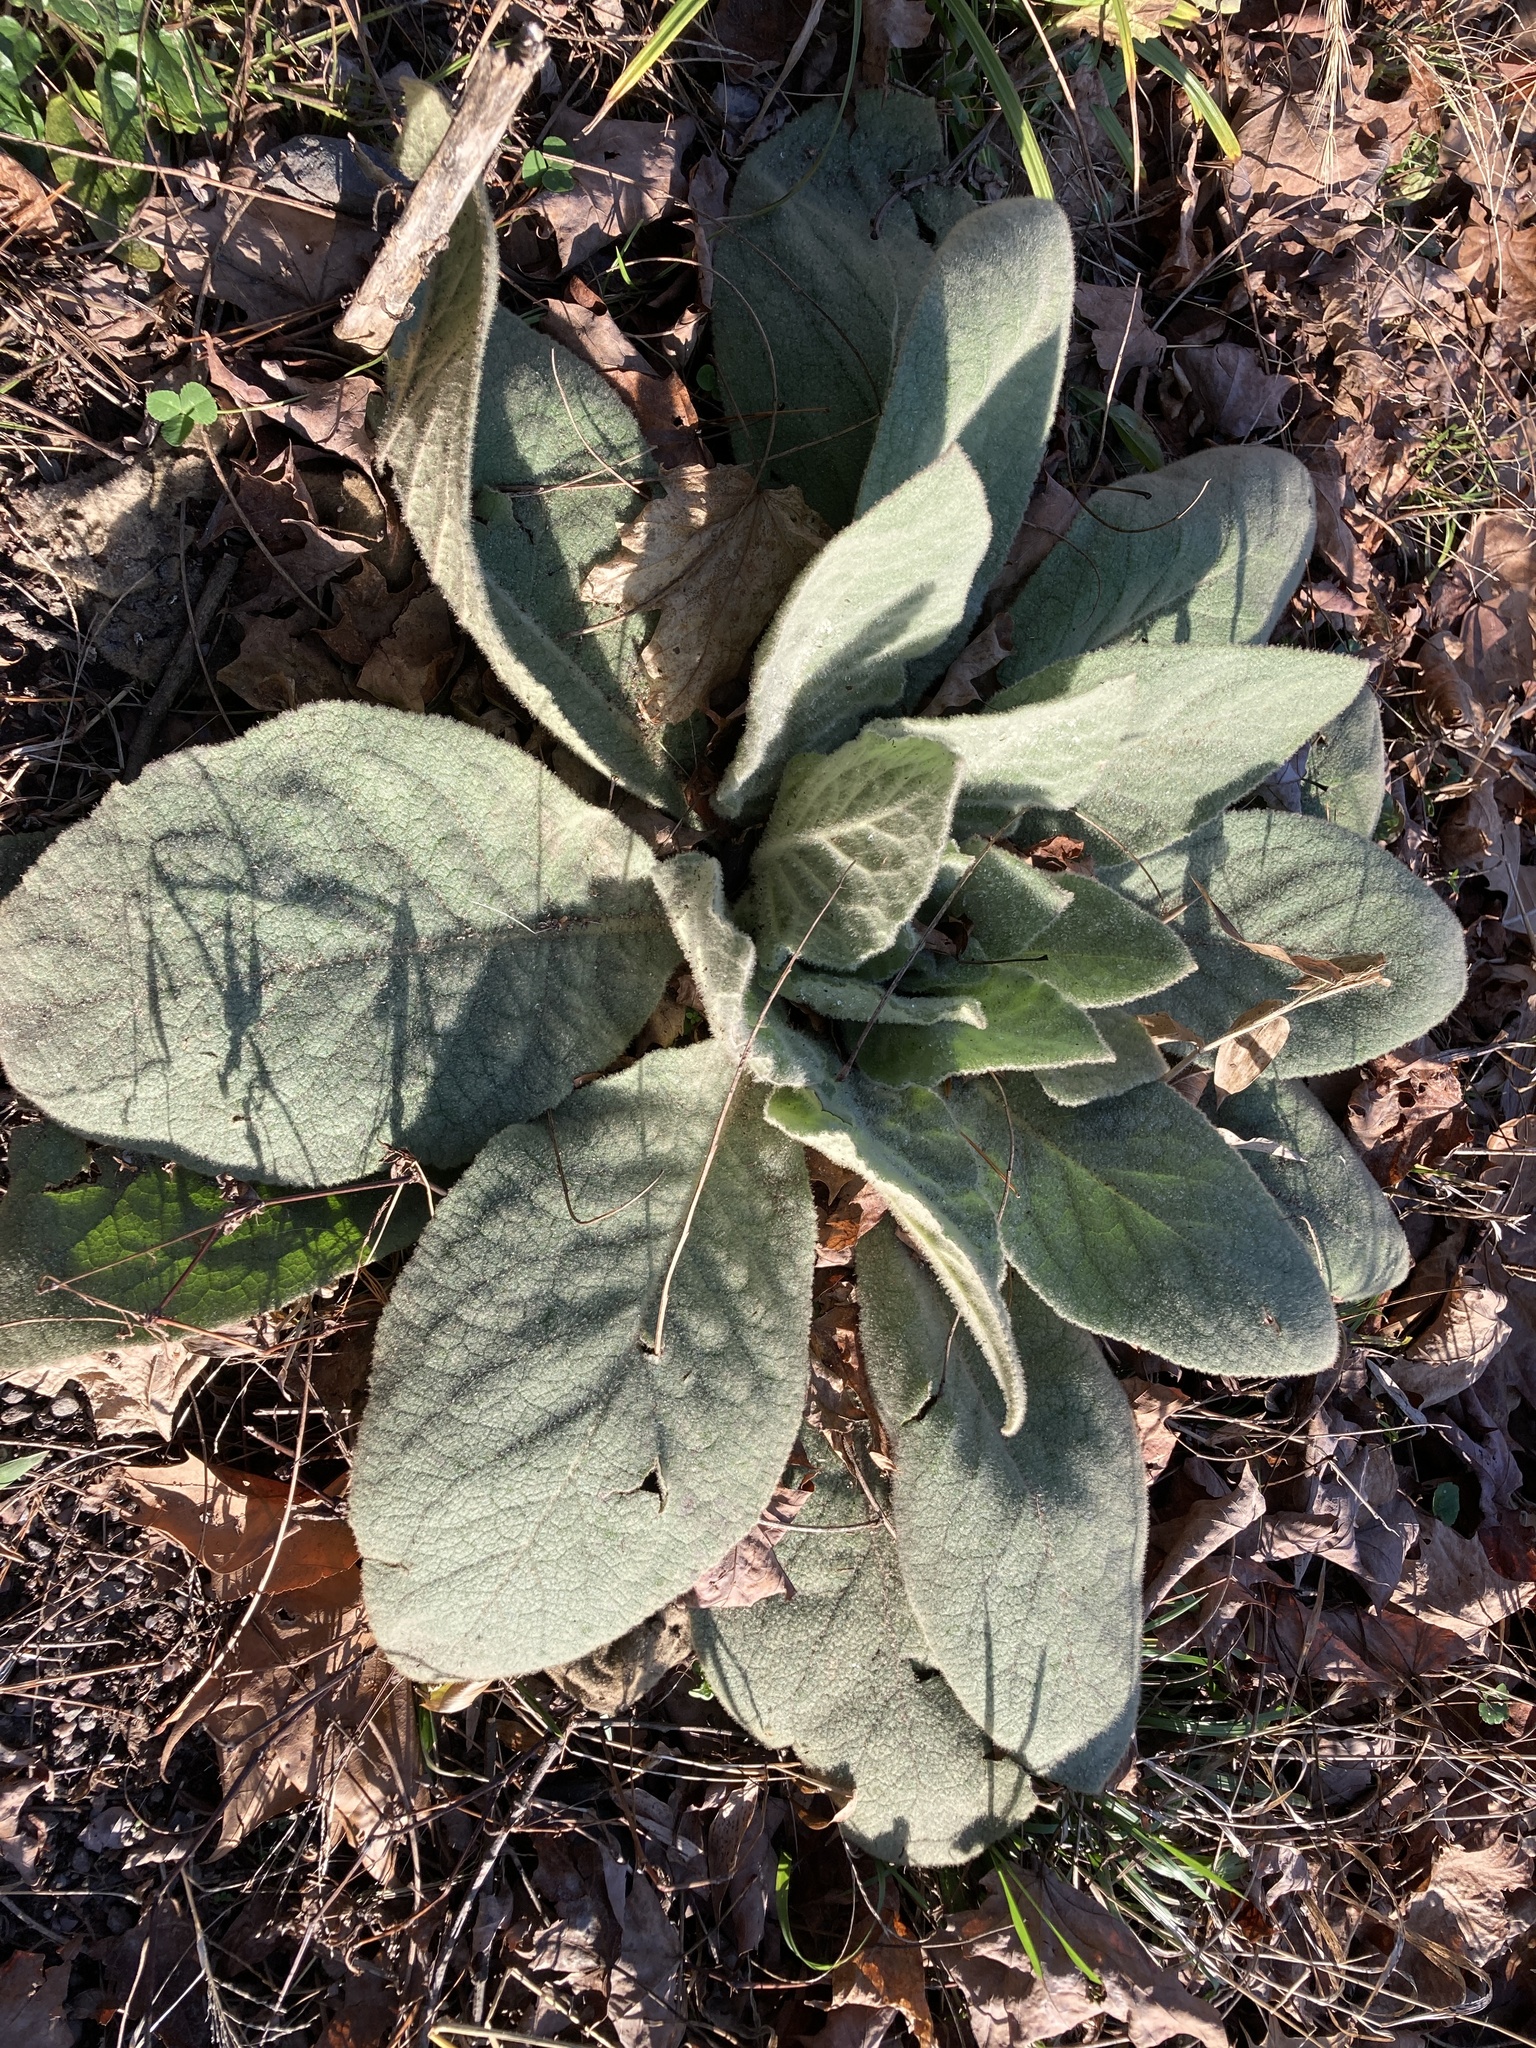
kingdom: Plantae
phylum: Tracheophyta
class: Magnoliopsida
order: Lamiales
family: Scrophulariaceae
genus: Verbascum
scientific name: Verbascum thapsus
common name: Common mullein
